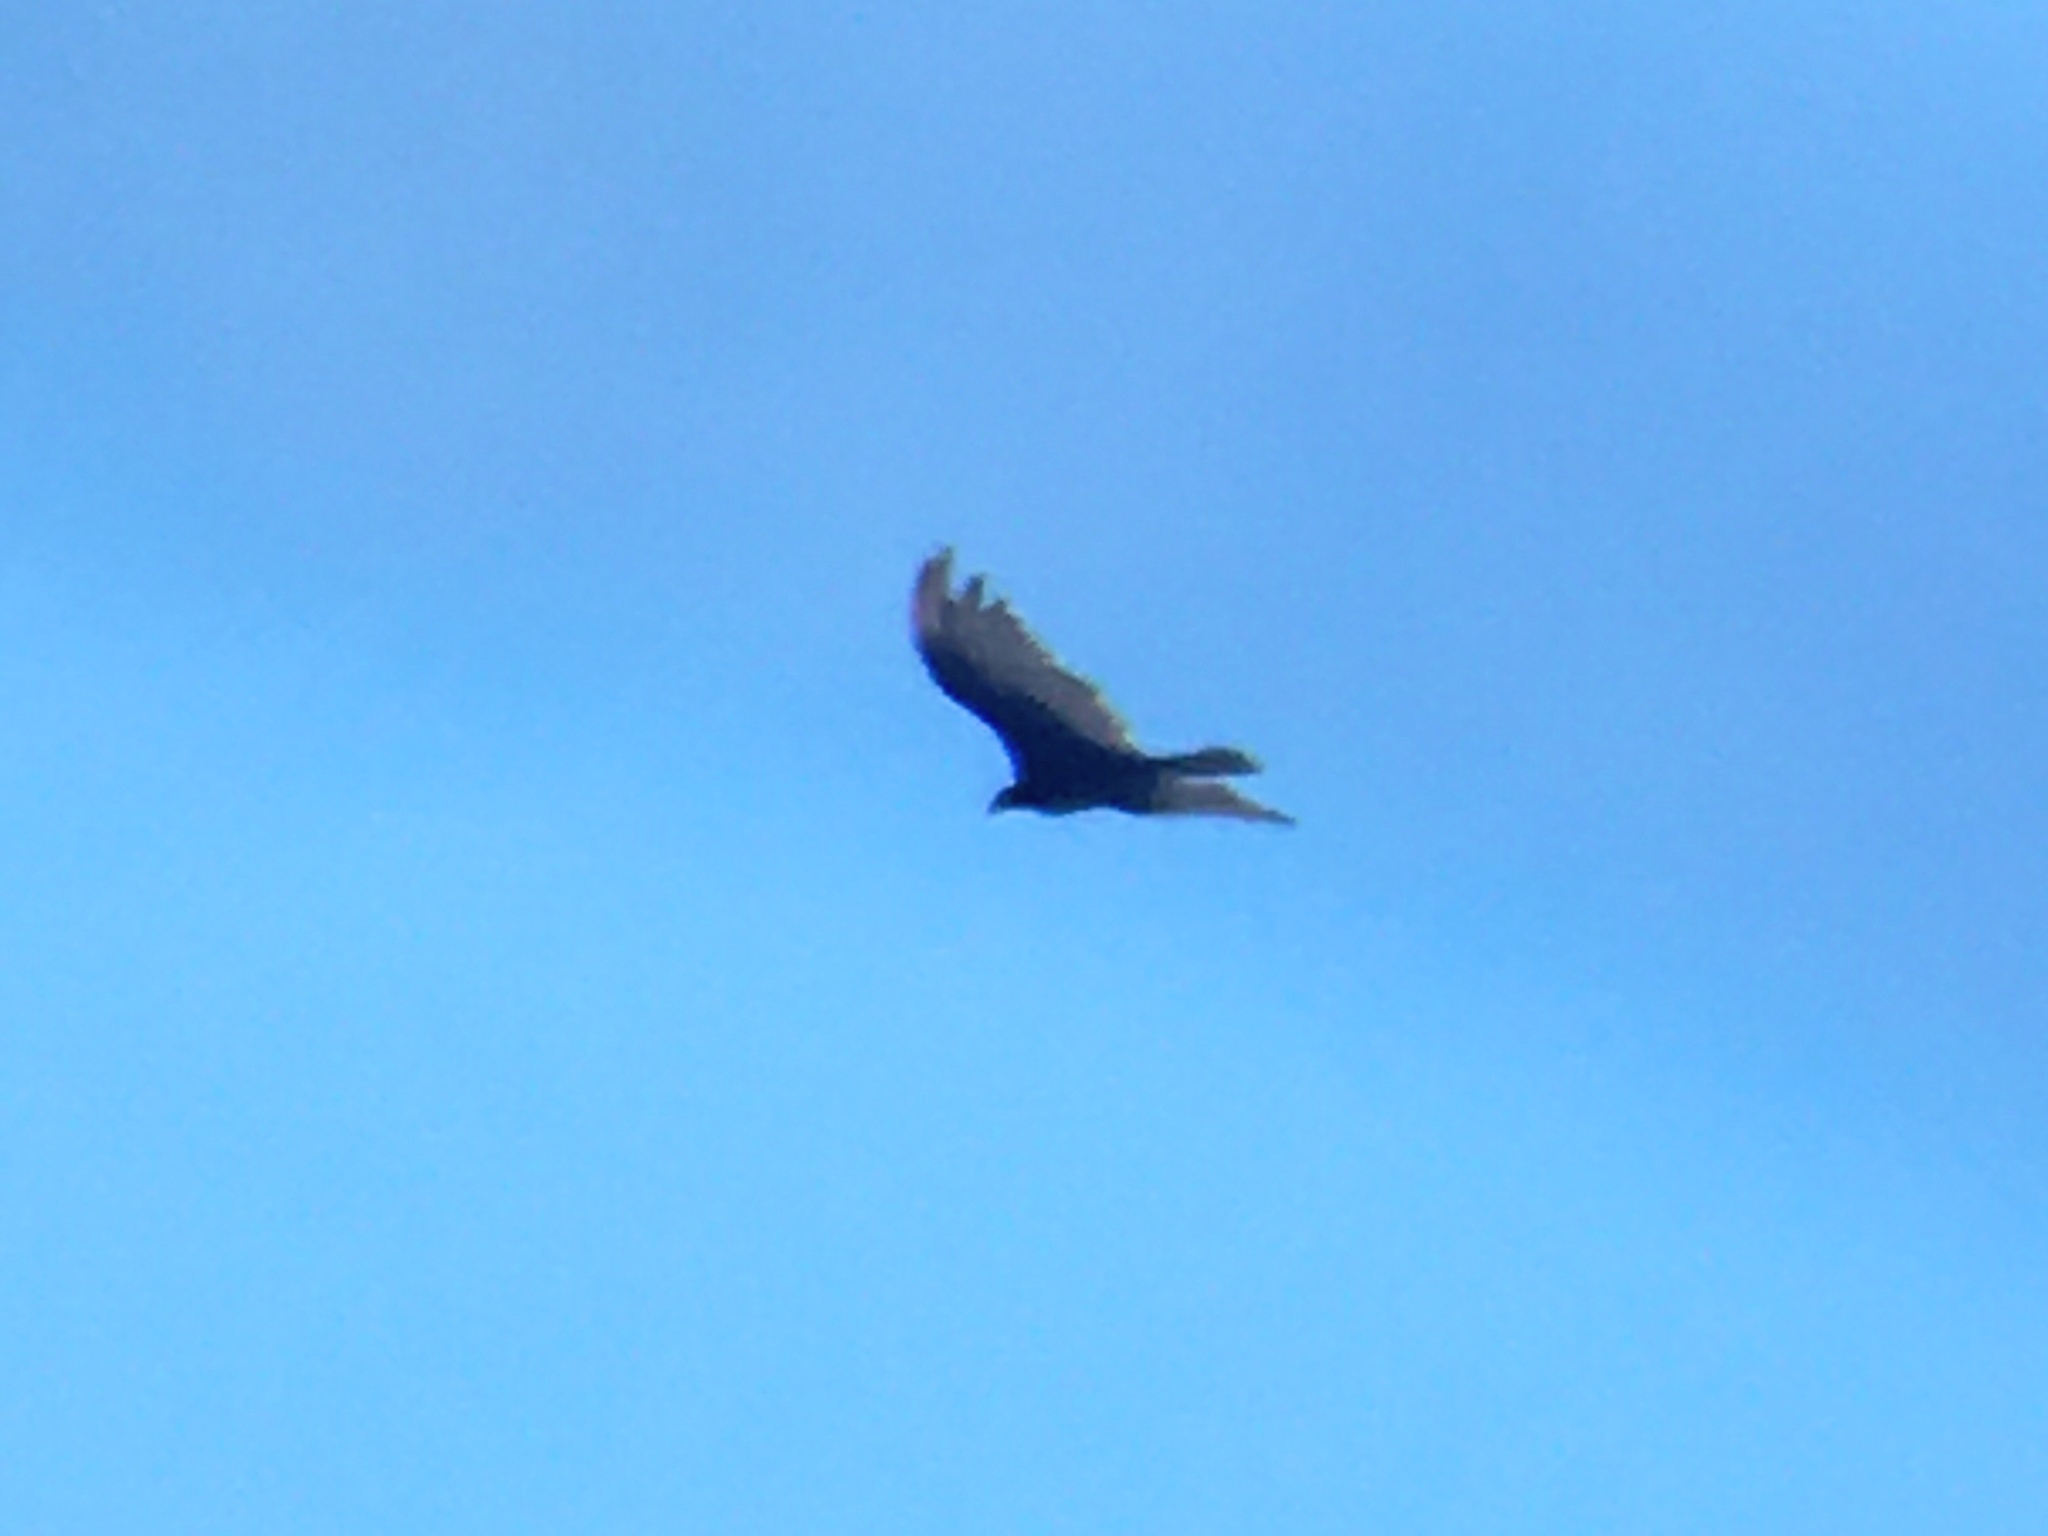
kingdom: Animalia
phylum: Chordata
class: Aves
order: Accipitriformes
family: Cathartidae
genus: Cathartes
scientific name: Cathartes aura
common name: Turkey vulture
